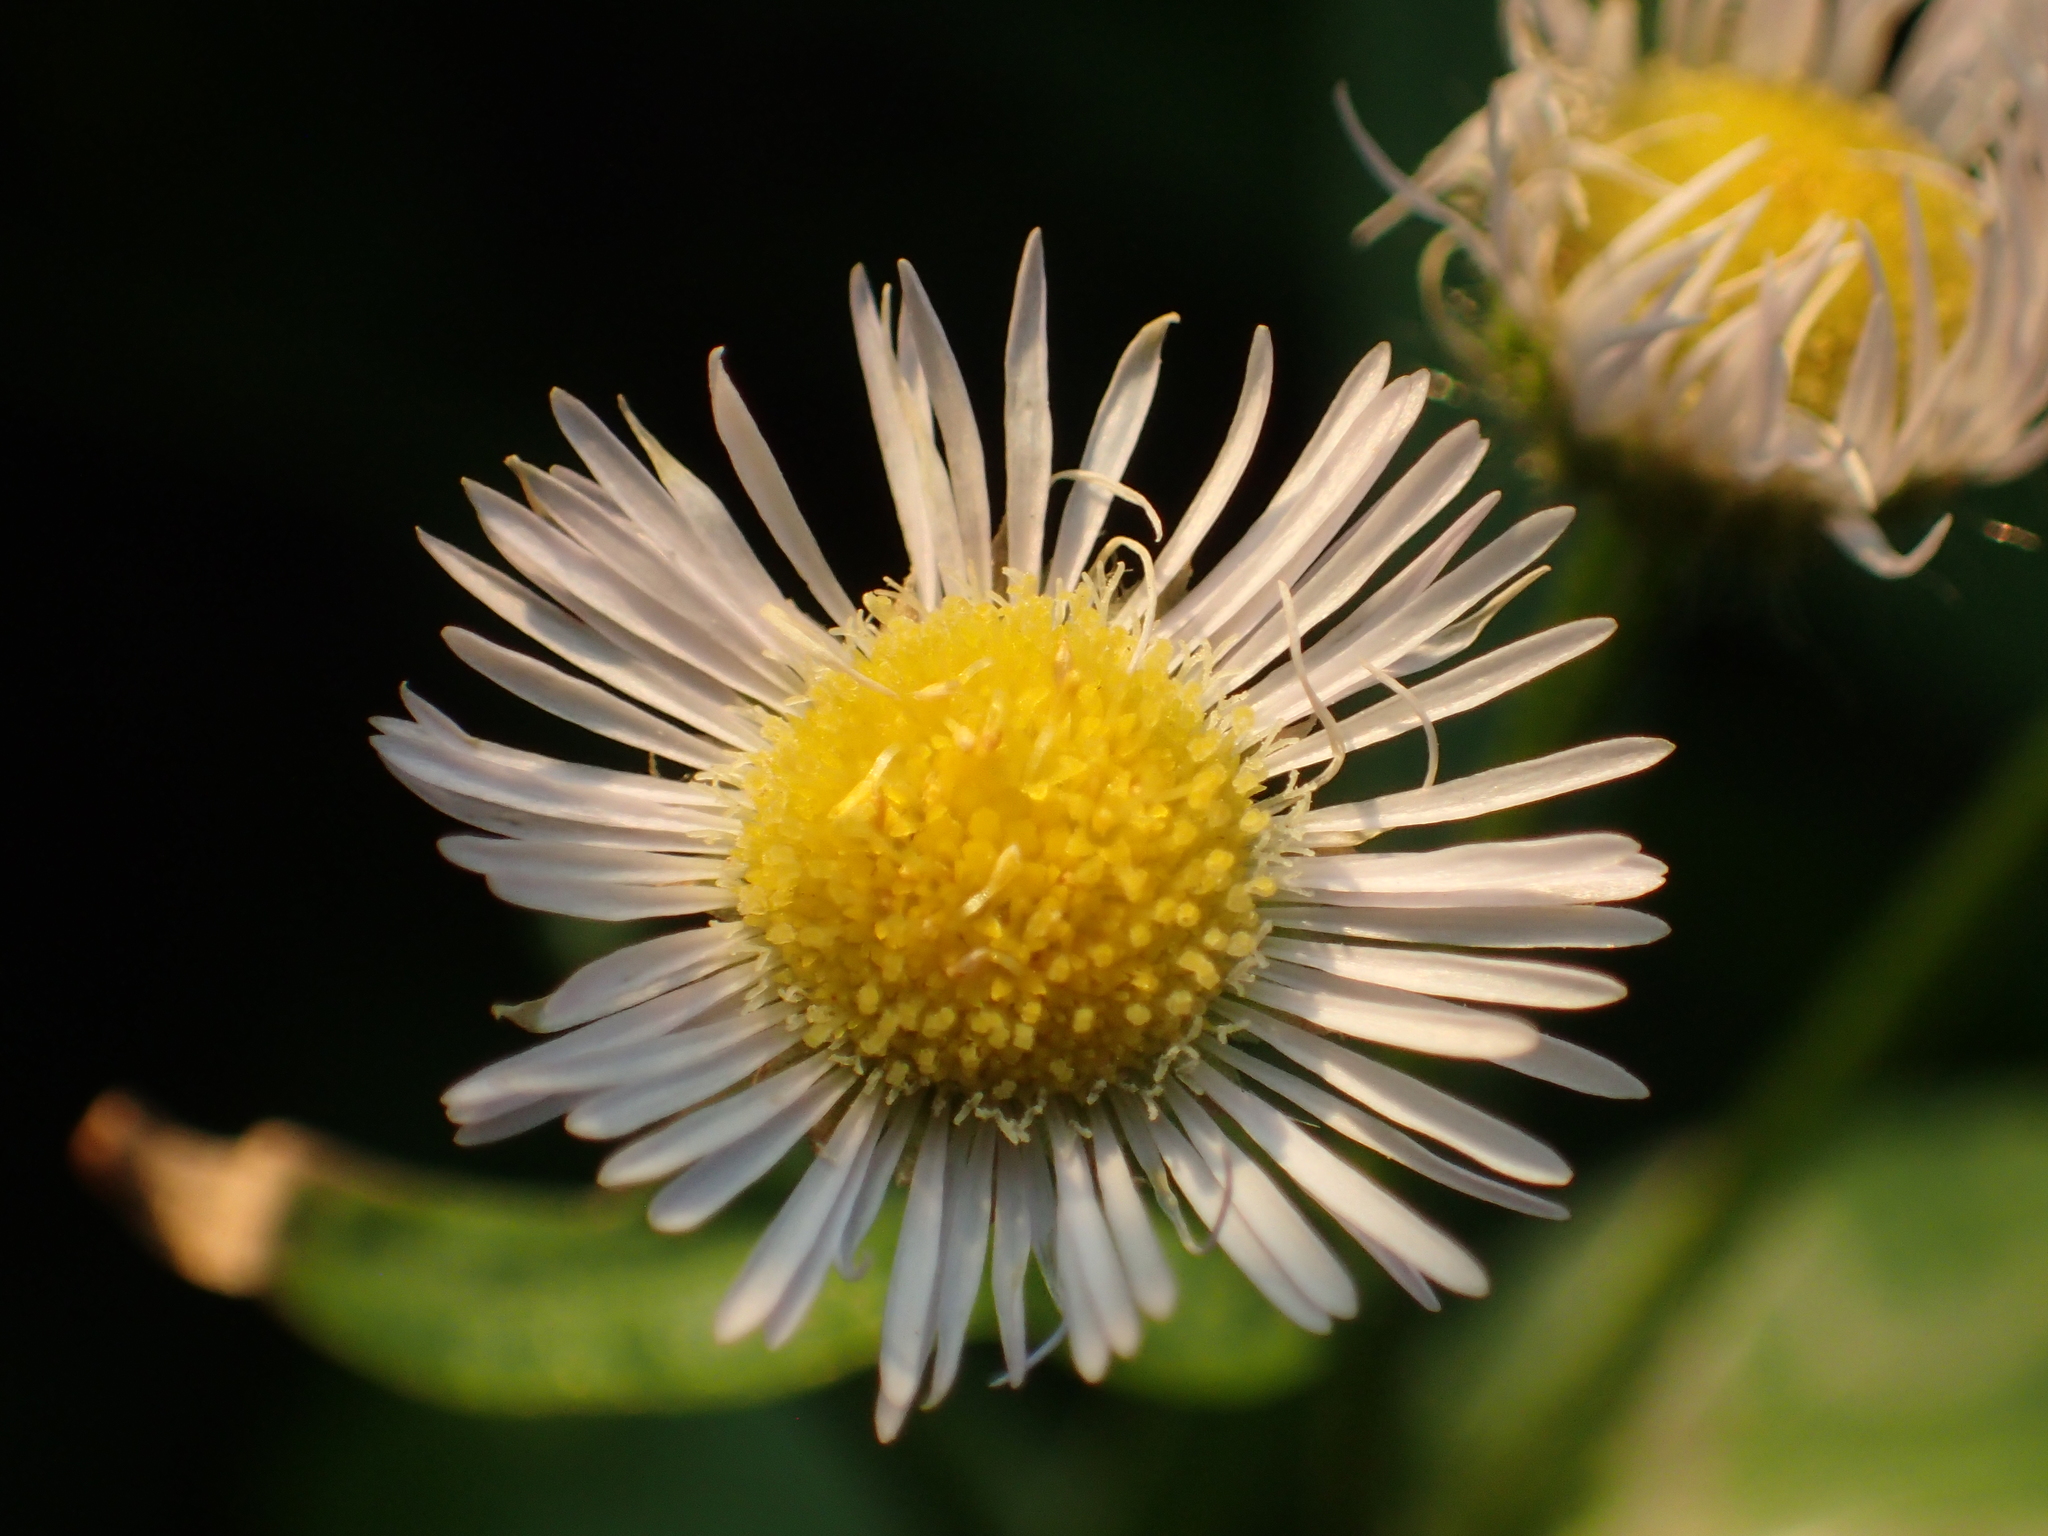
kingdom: Plantae
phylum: Tracheophyta
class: Magnoliopsida
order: Asterales
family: Asteraceae
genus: Erigeron
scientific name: Erigeron annuus
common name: Tall fleabane
